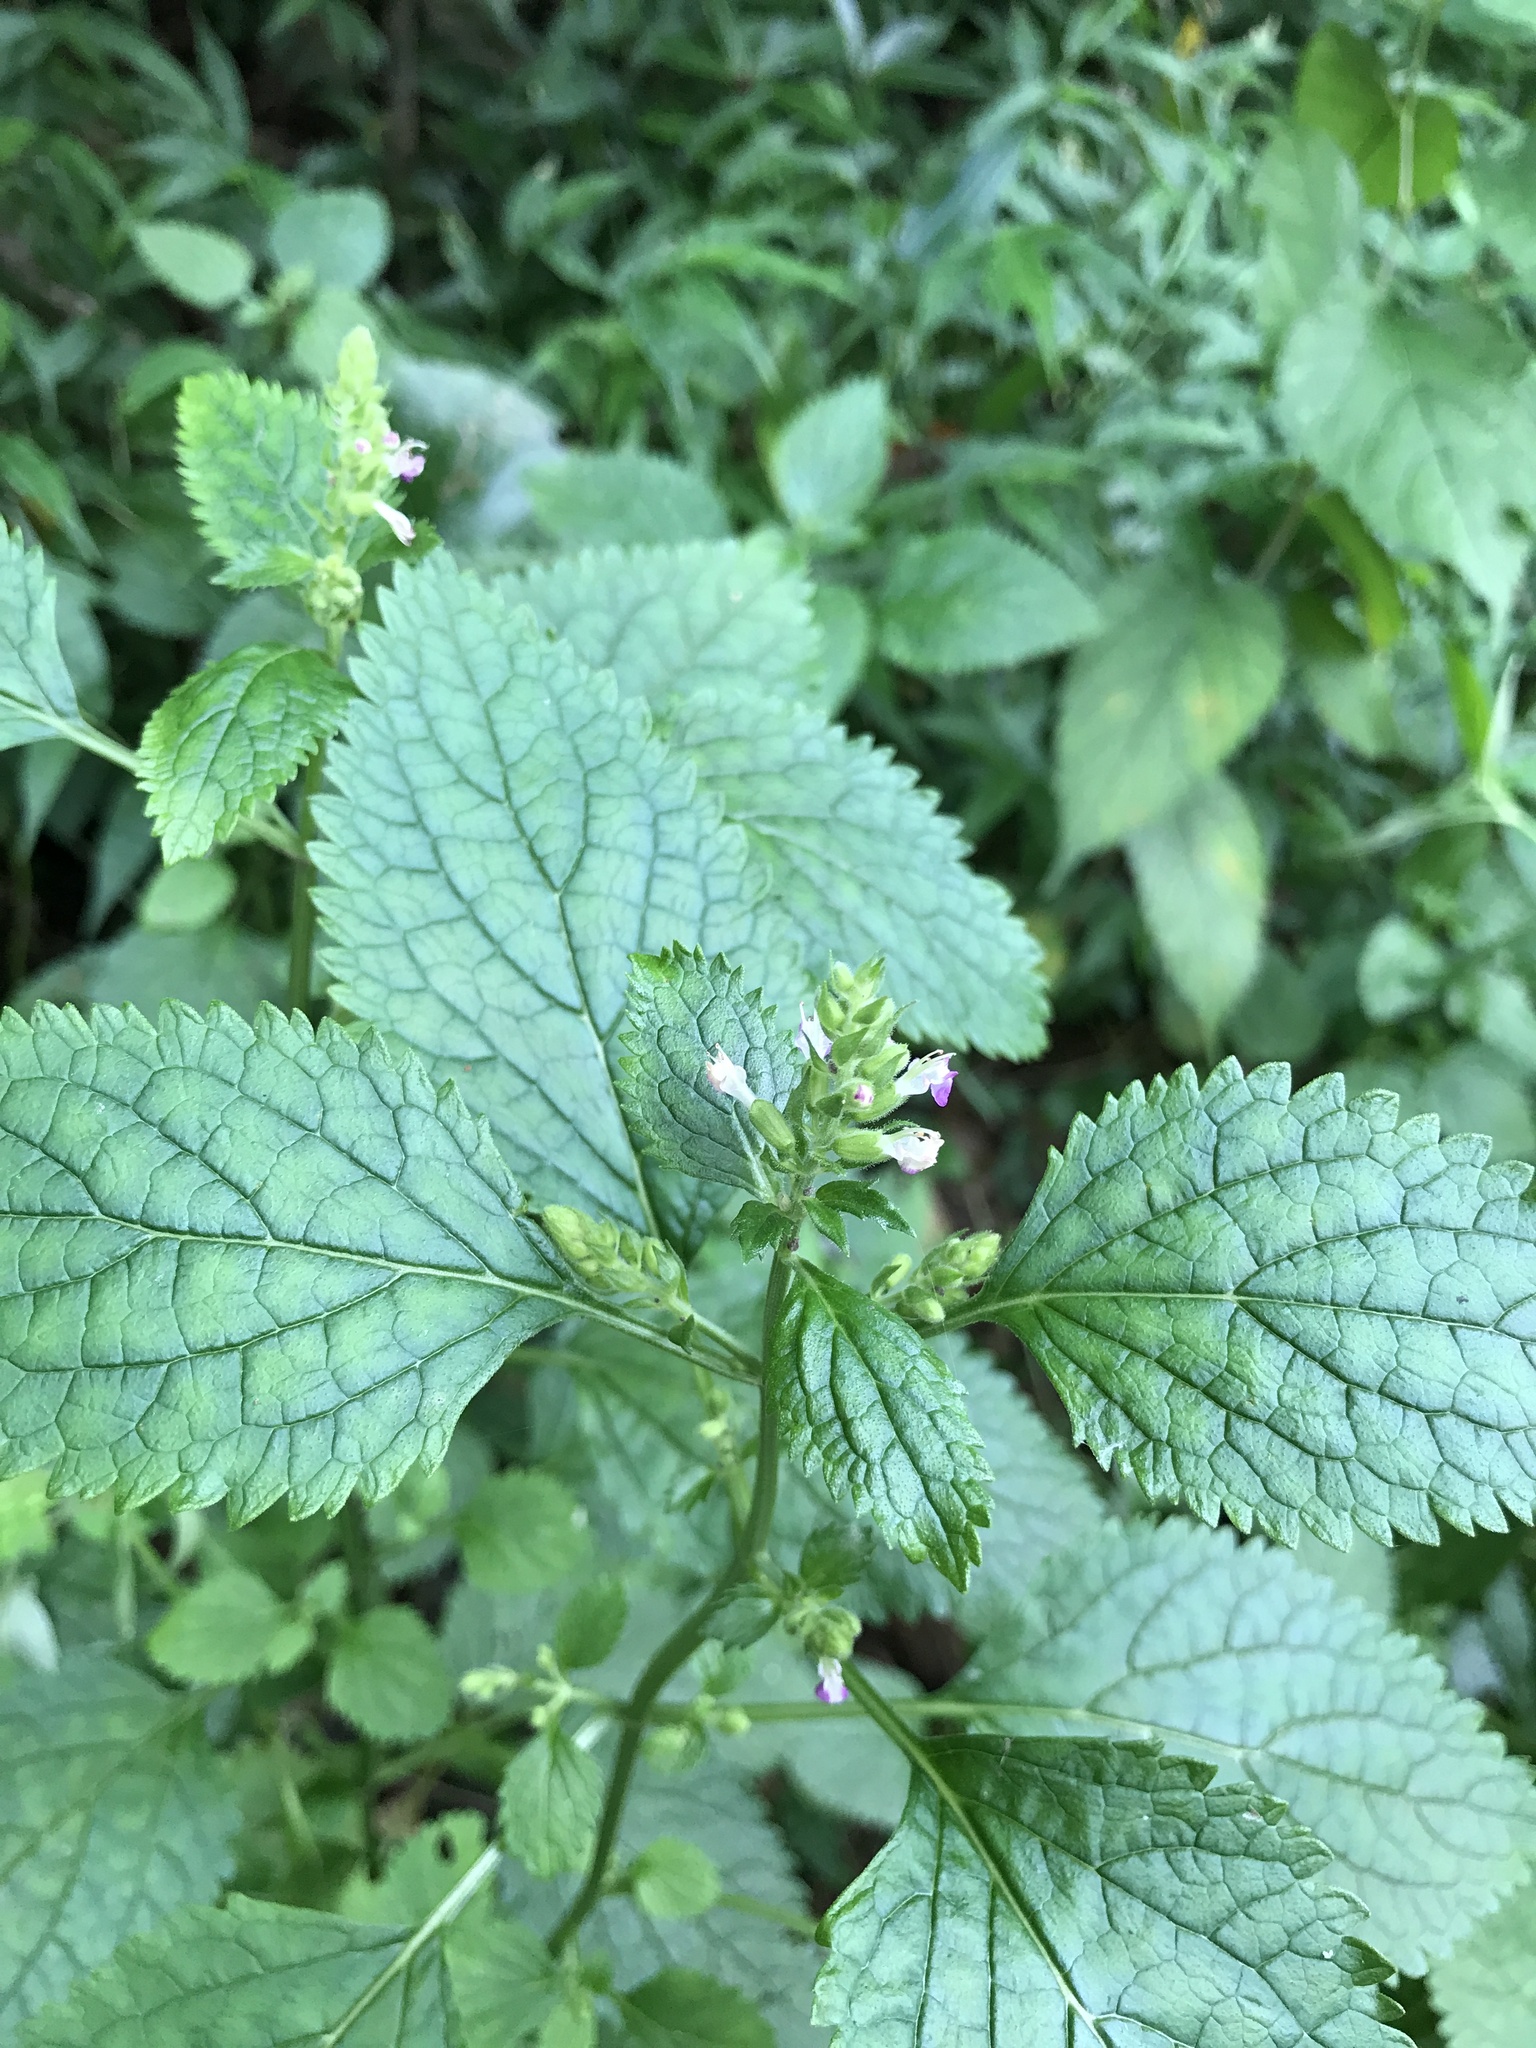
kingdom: Plantae
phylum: Tracheophyta
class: Magnoliopsida
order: Lamiales
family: Lamiaceae
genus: Teucrium
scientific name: Teucrium viscidum
